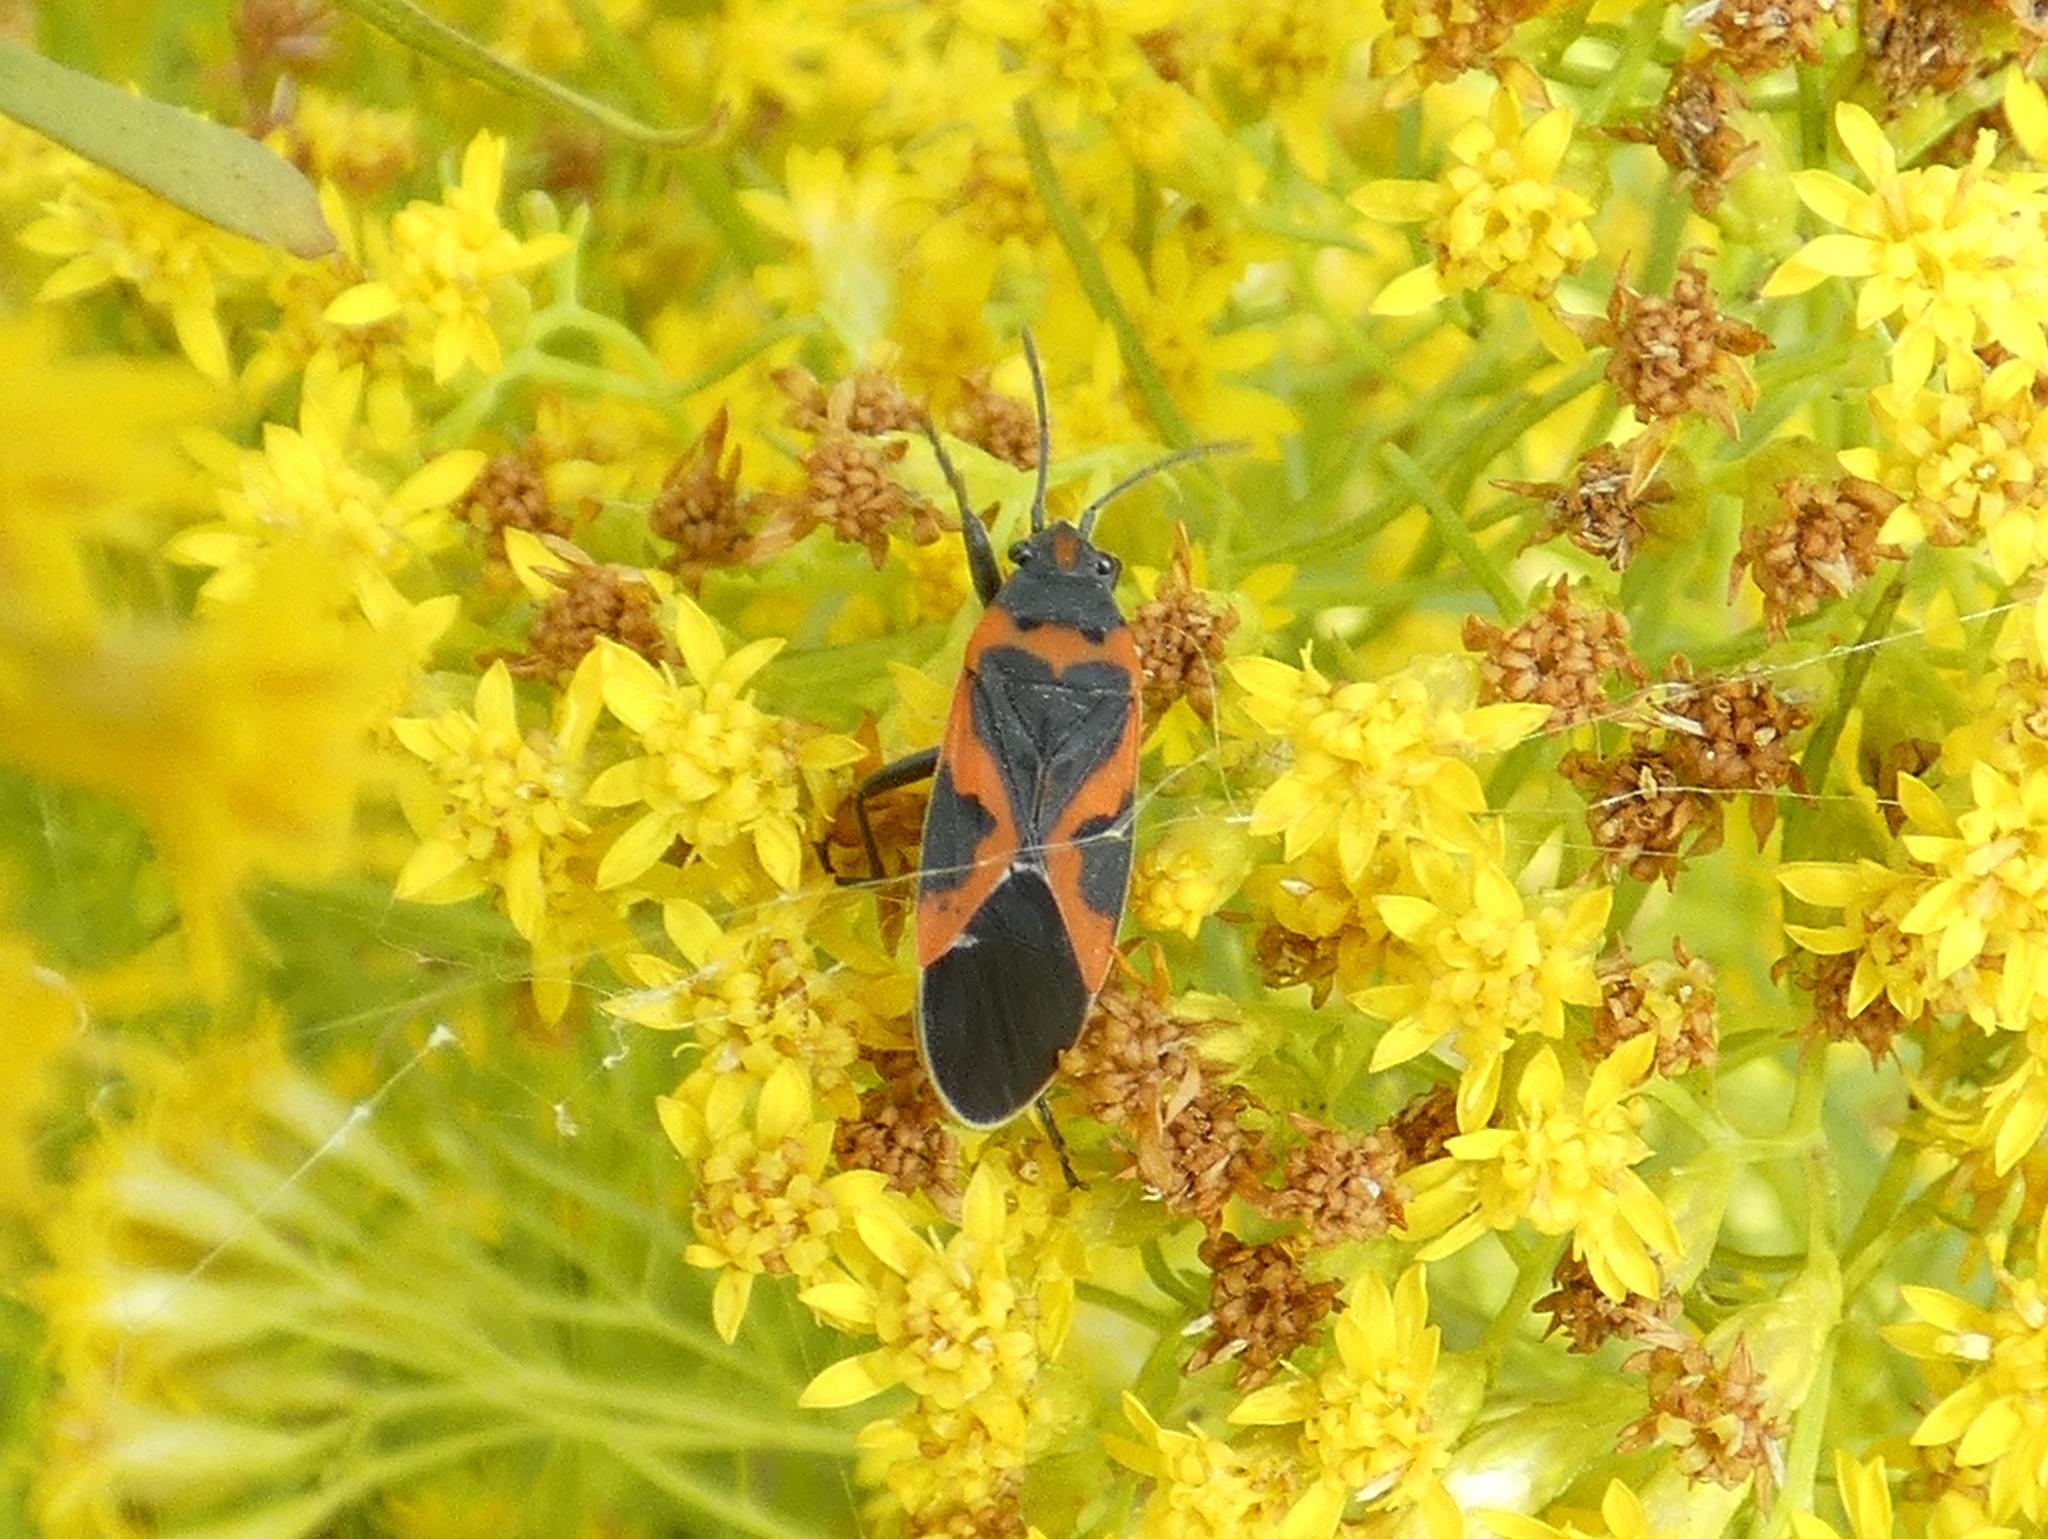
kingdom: Animalia
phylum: Arthropoda
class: Insecta
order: Hemiptera
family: Lygaeidae
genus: Lygaeus
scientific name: Lygaeus kalmii
